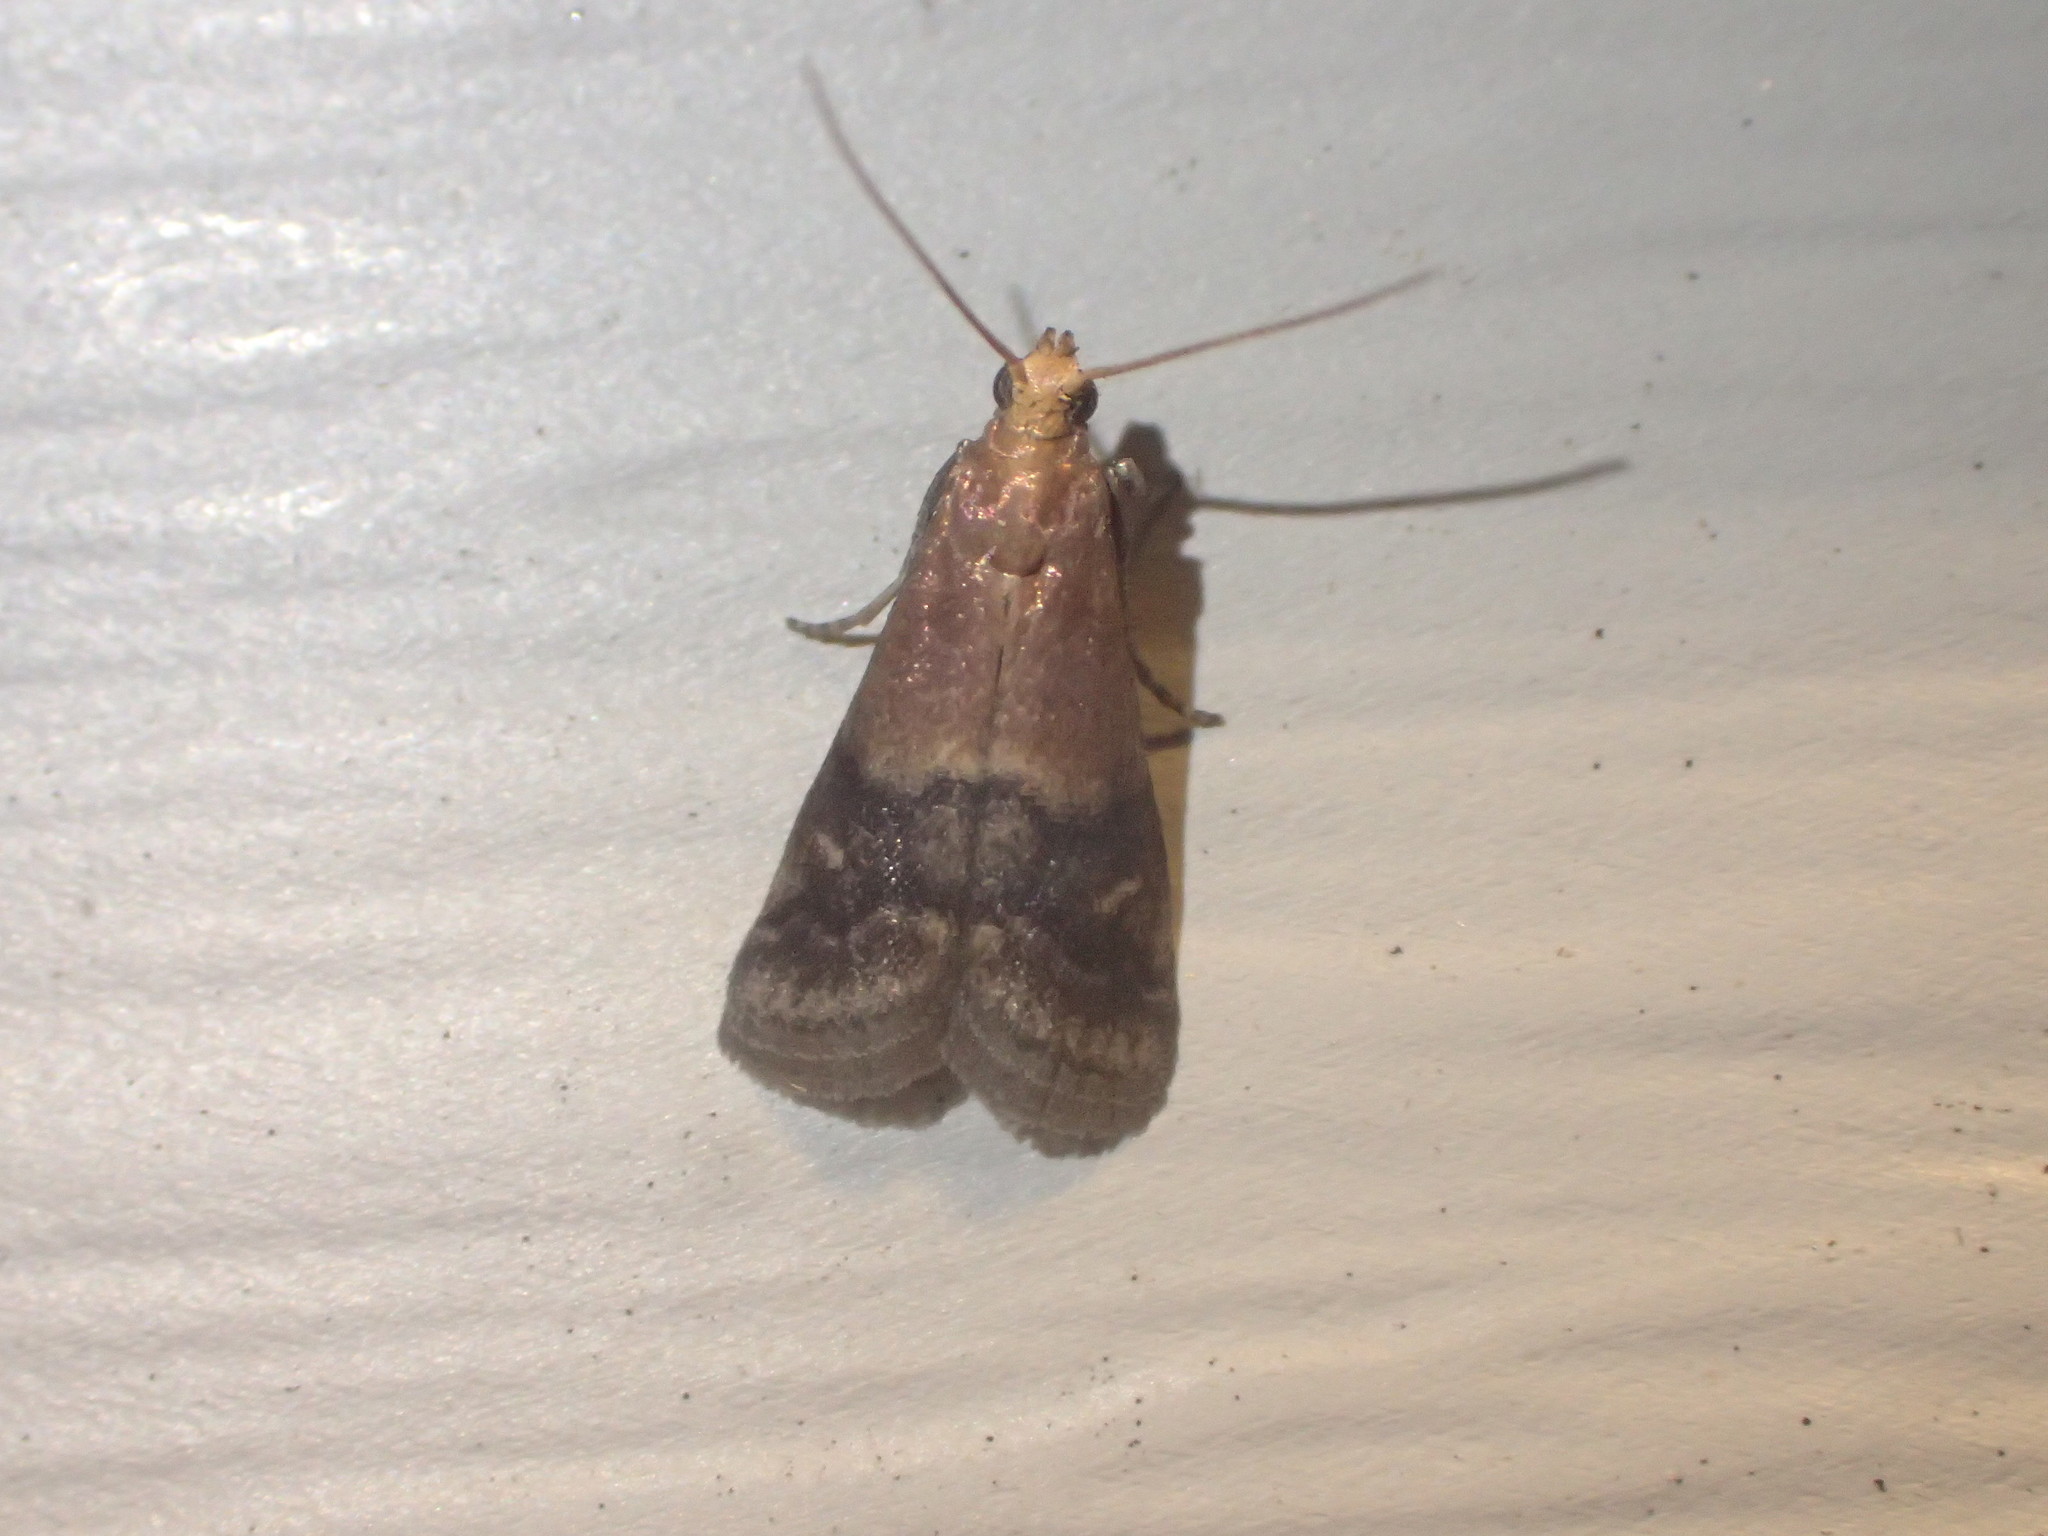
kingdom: Animalia
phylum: Arthropoda
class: Insecta
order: Lepidoptera
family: Pyralidae
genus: Eulogia
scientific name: Eulogia ochrifrontella
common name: Broad-banded eulogia moth
